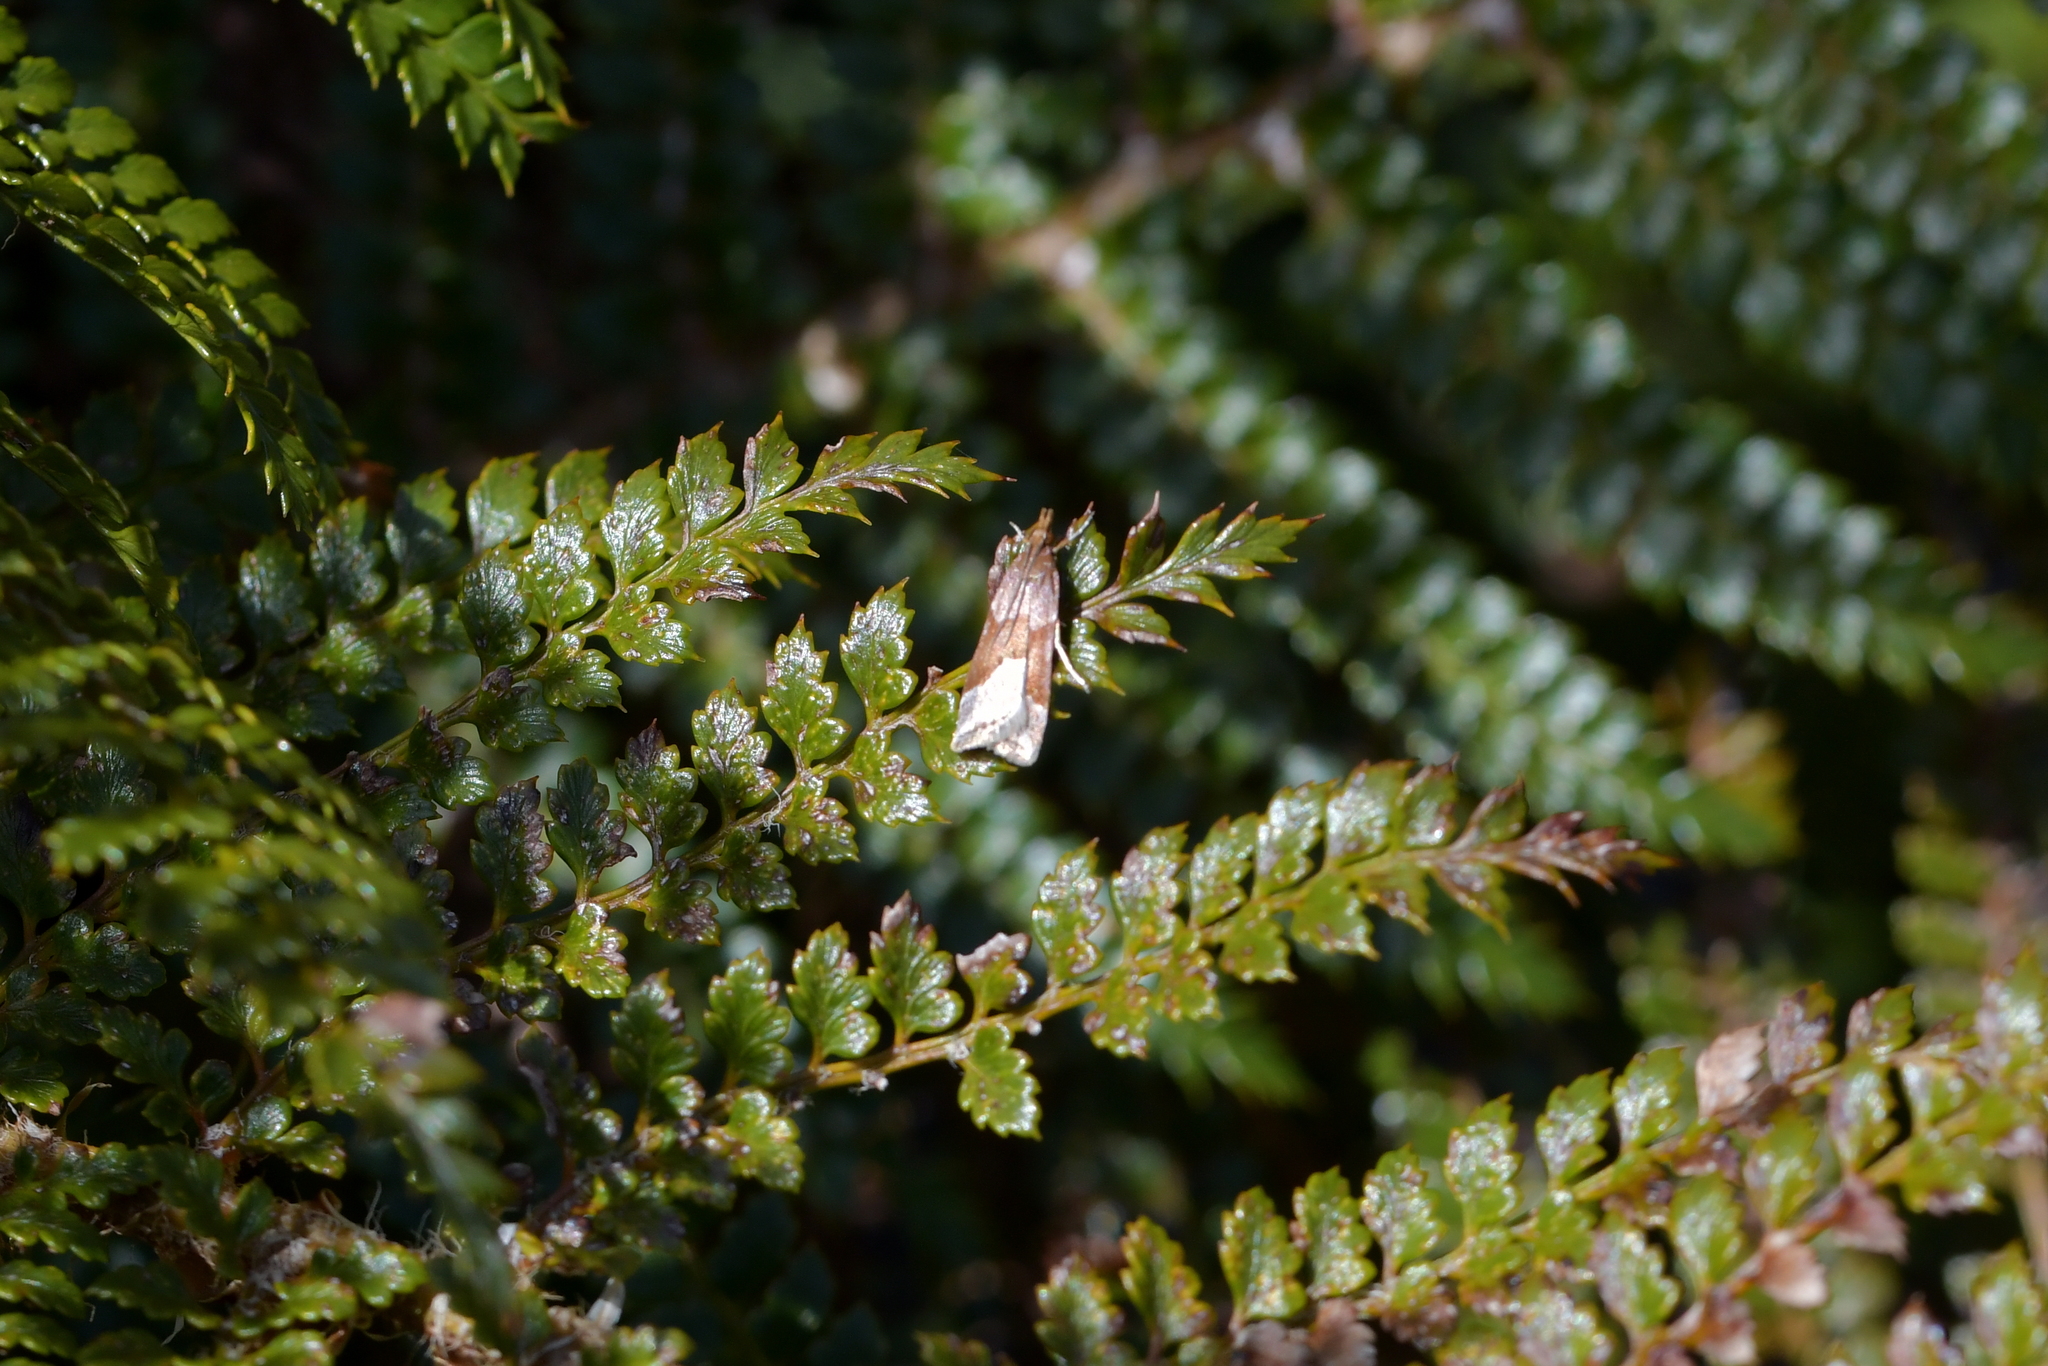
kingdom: Animalia
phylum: Arthropoda
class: Insecta
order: Lepidoptera
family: Crambidae
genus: Eudonia
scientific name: Eudonia feredayi
